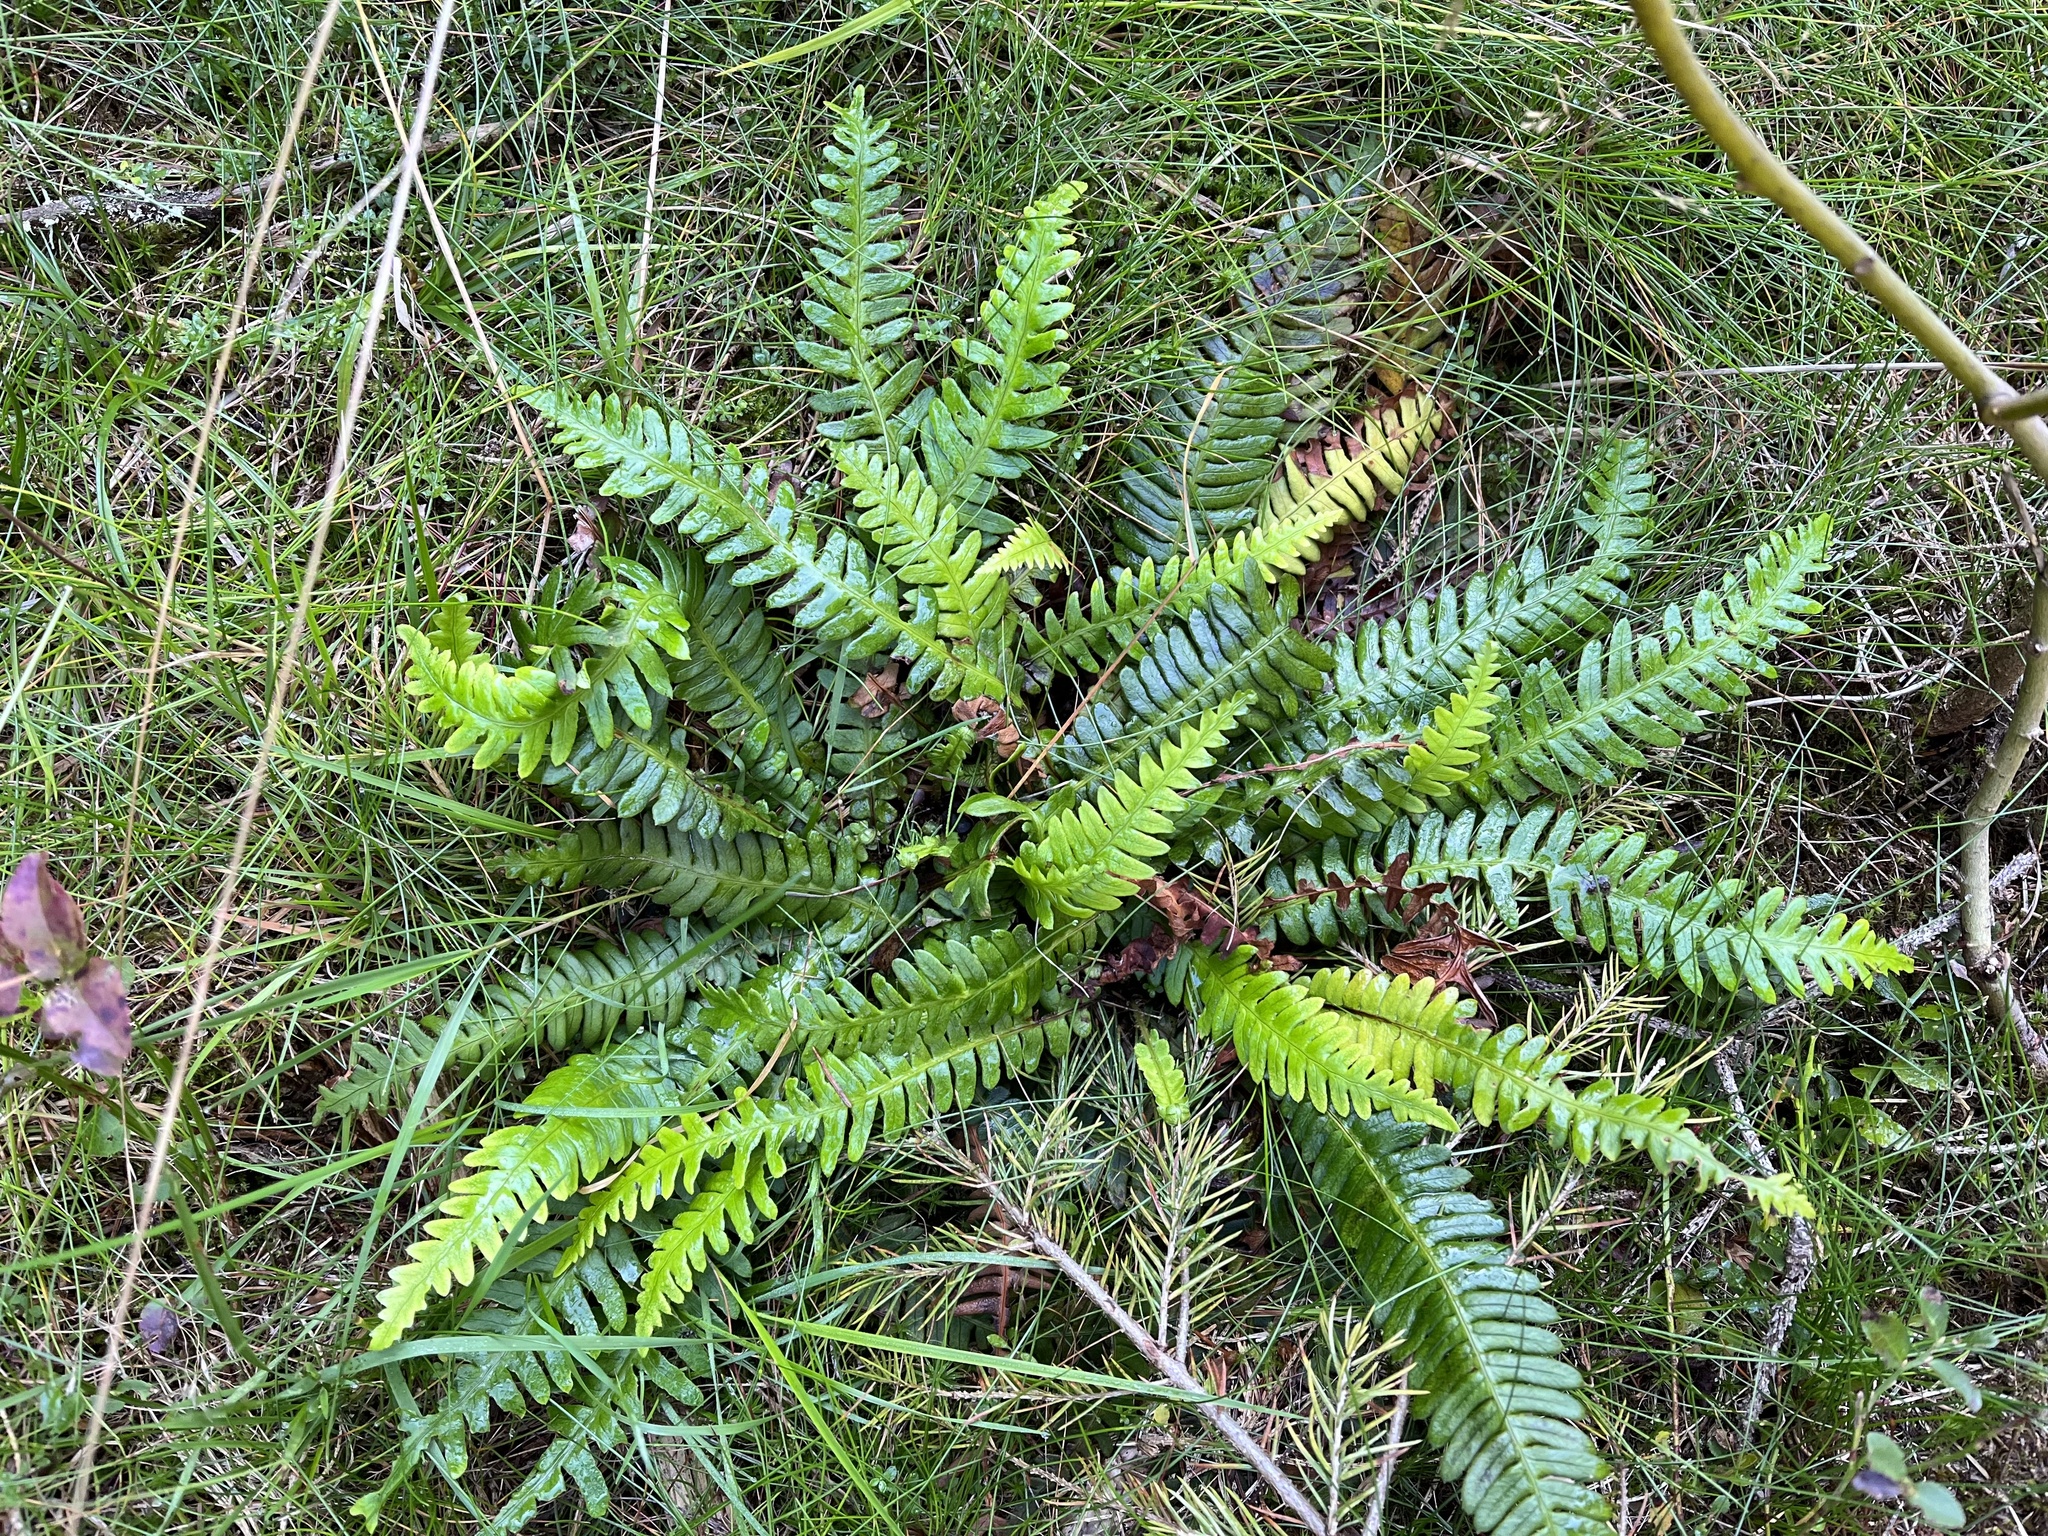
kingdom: Plantae
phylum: Tracheophyta
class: Polypodiopsida
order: Polypodiales
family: Blechnaceae
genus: Struthiopteris
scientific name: Struthiopteris spicant
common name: Deer fern
